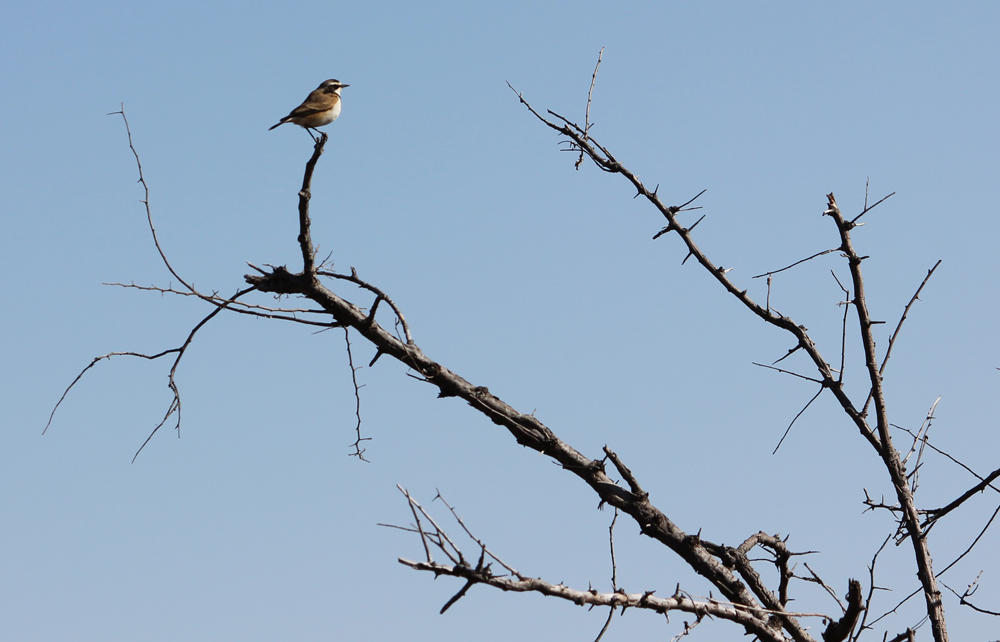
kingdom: Animalia
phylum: Chordata
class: Aves
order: Passeriformes
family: Muscicapidae
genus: Oenanthe
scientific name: Oenanthe pileata
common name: Capped wheatear
